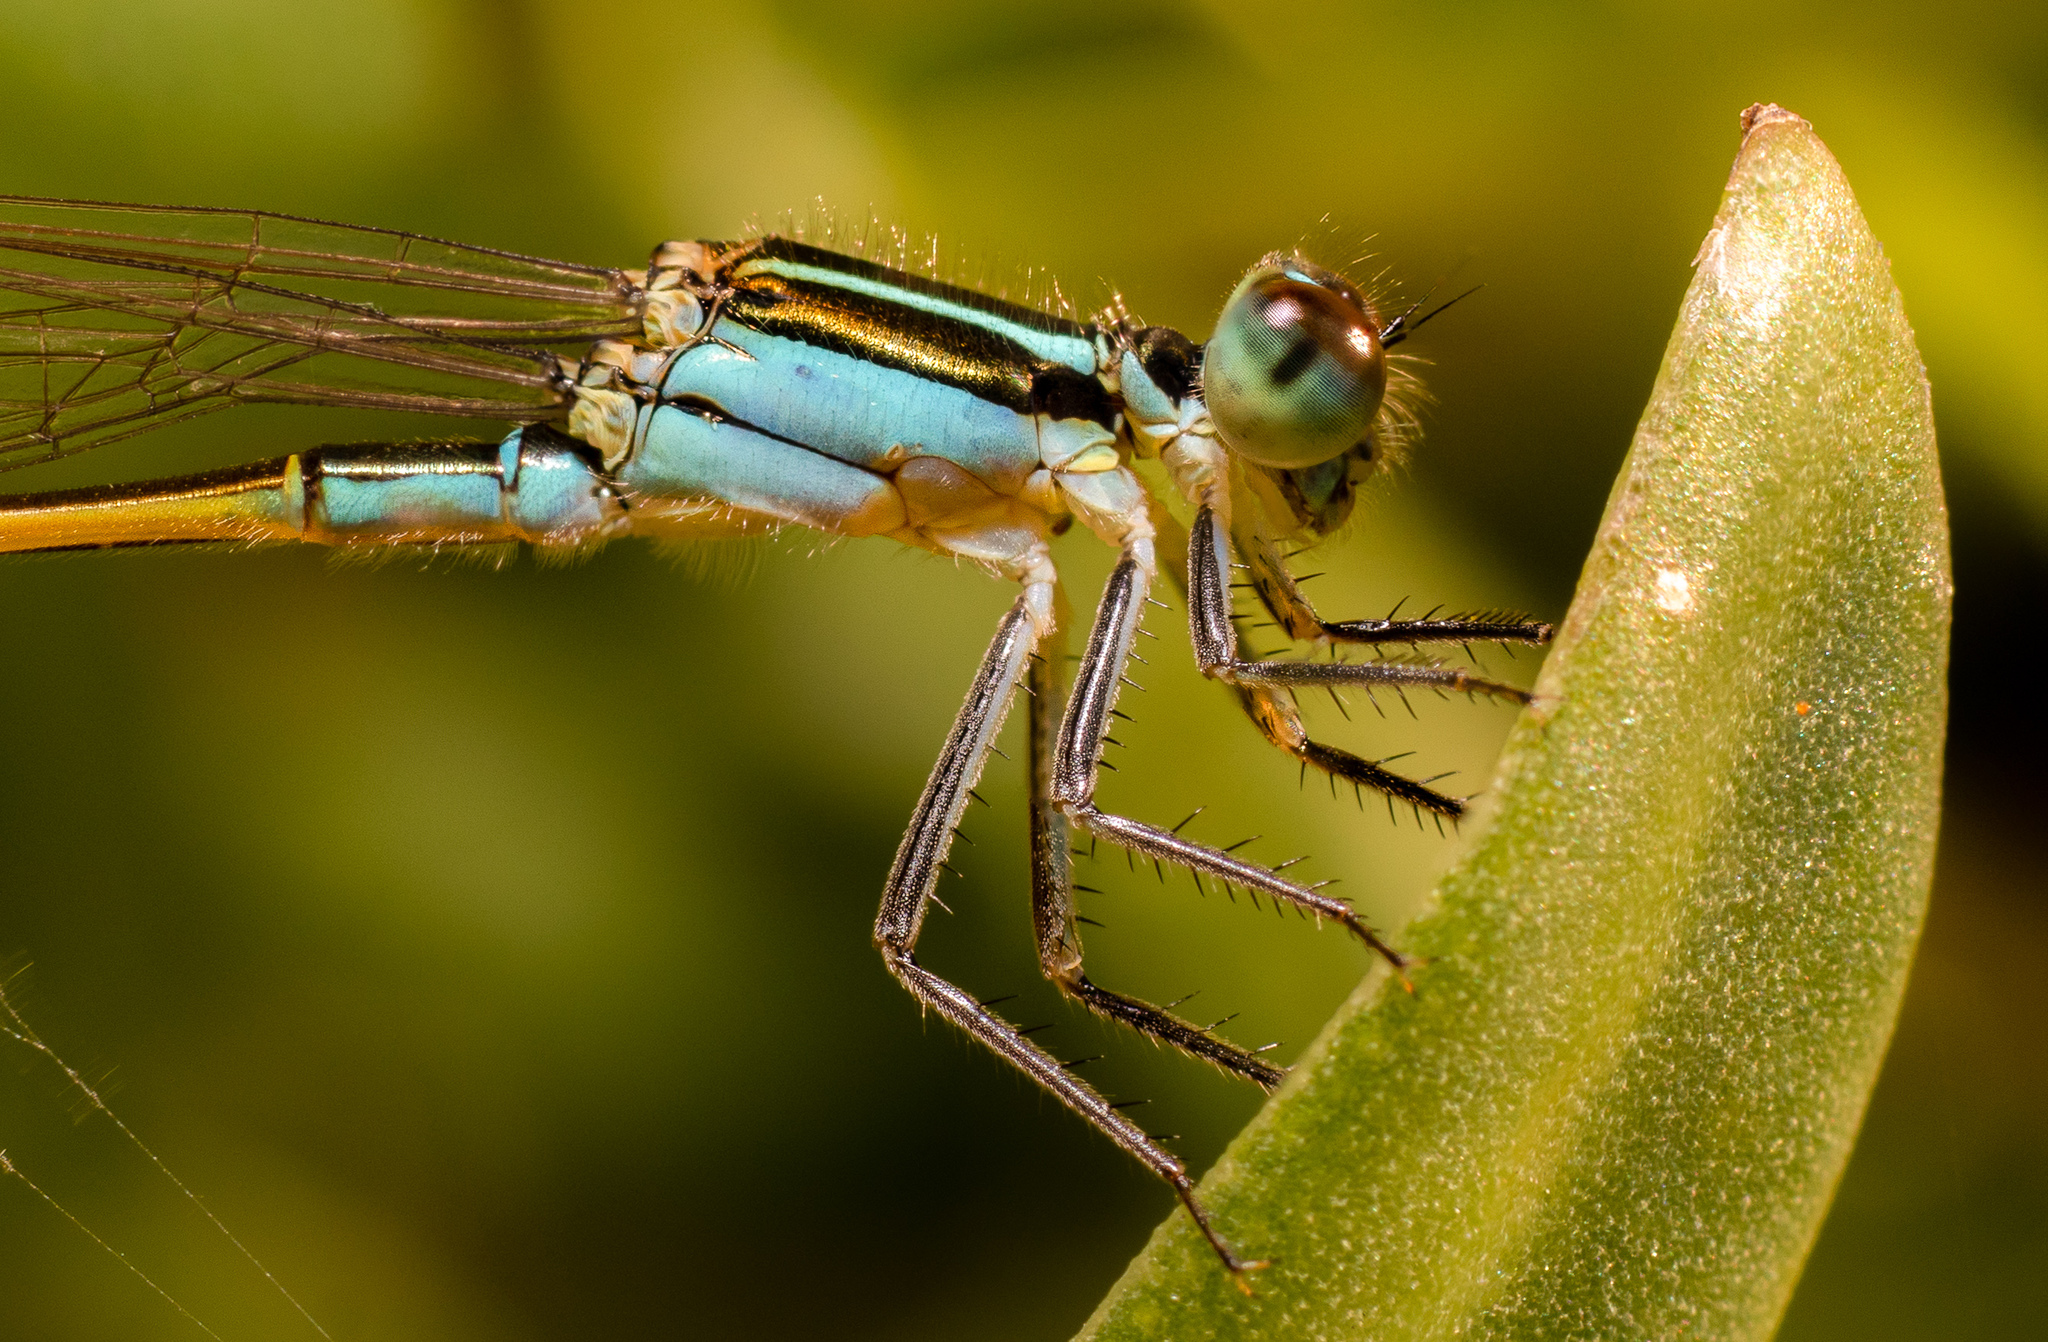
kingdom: Animalia
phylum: Arthropoda
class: Insecta
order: Odonata
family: Coenagrionidae
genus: Ischnura
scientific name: Ischnura ramburii
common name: Rambur's forktail
